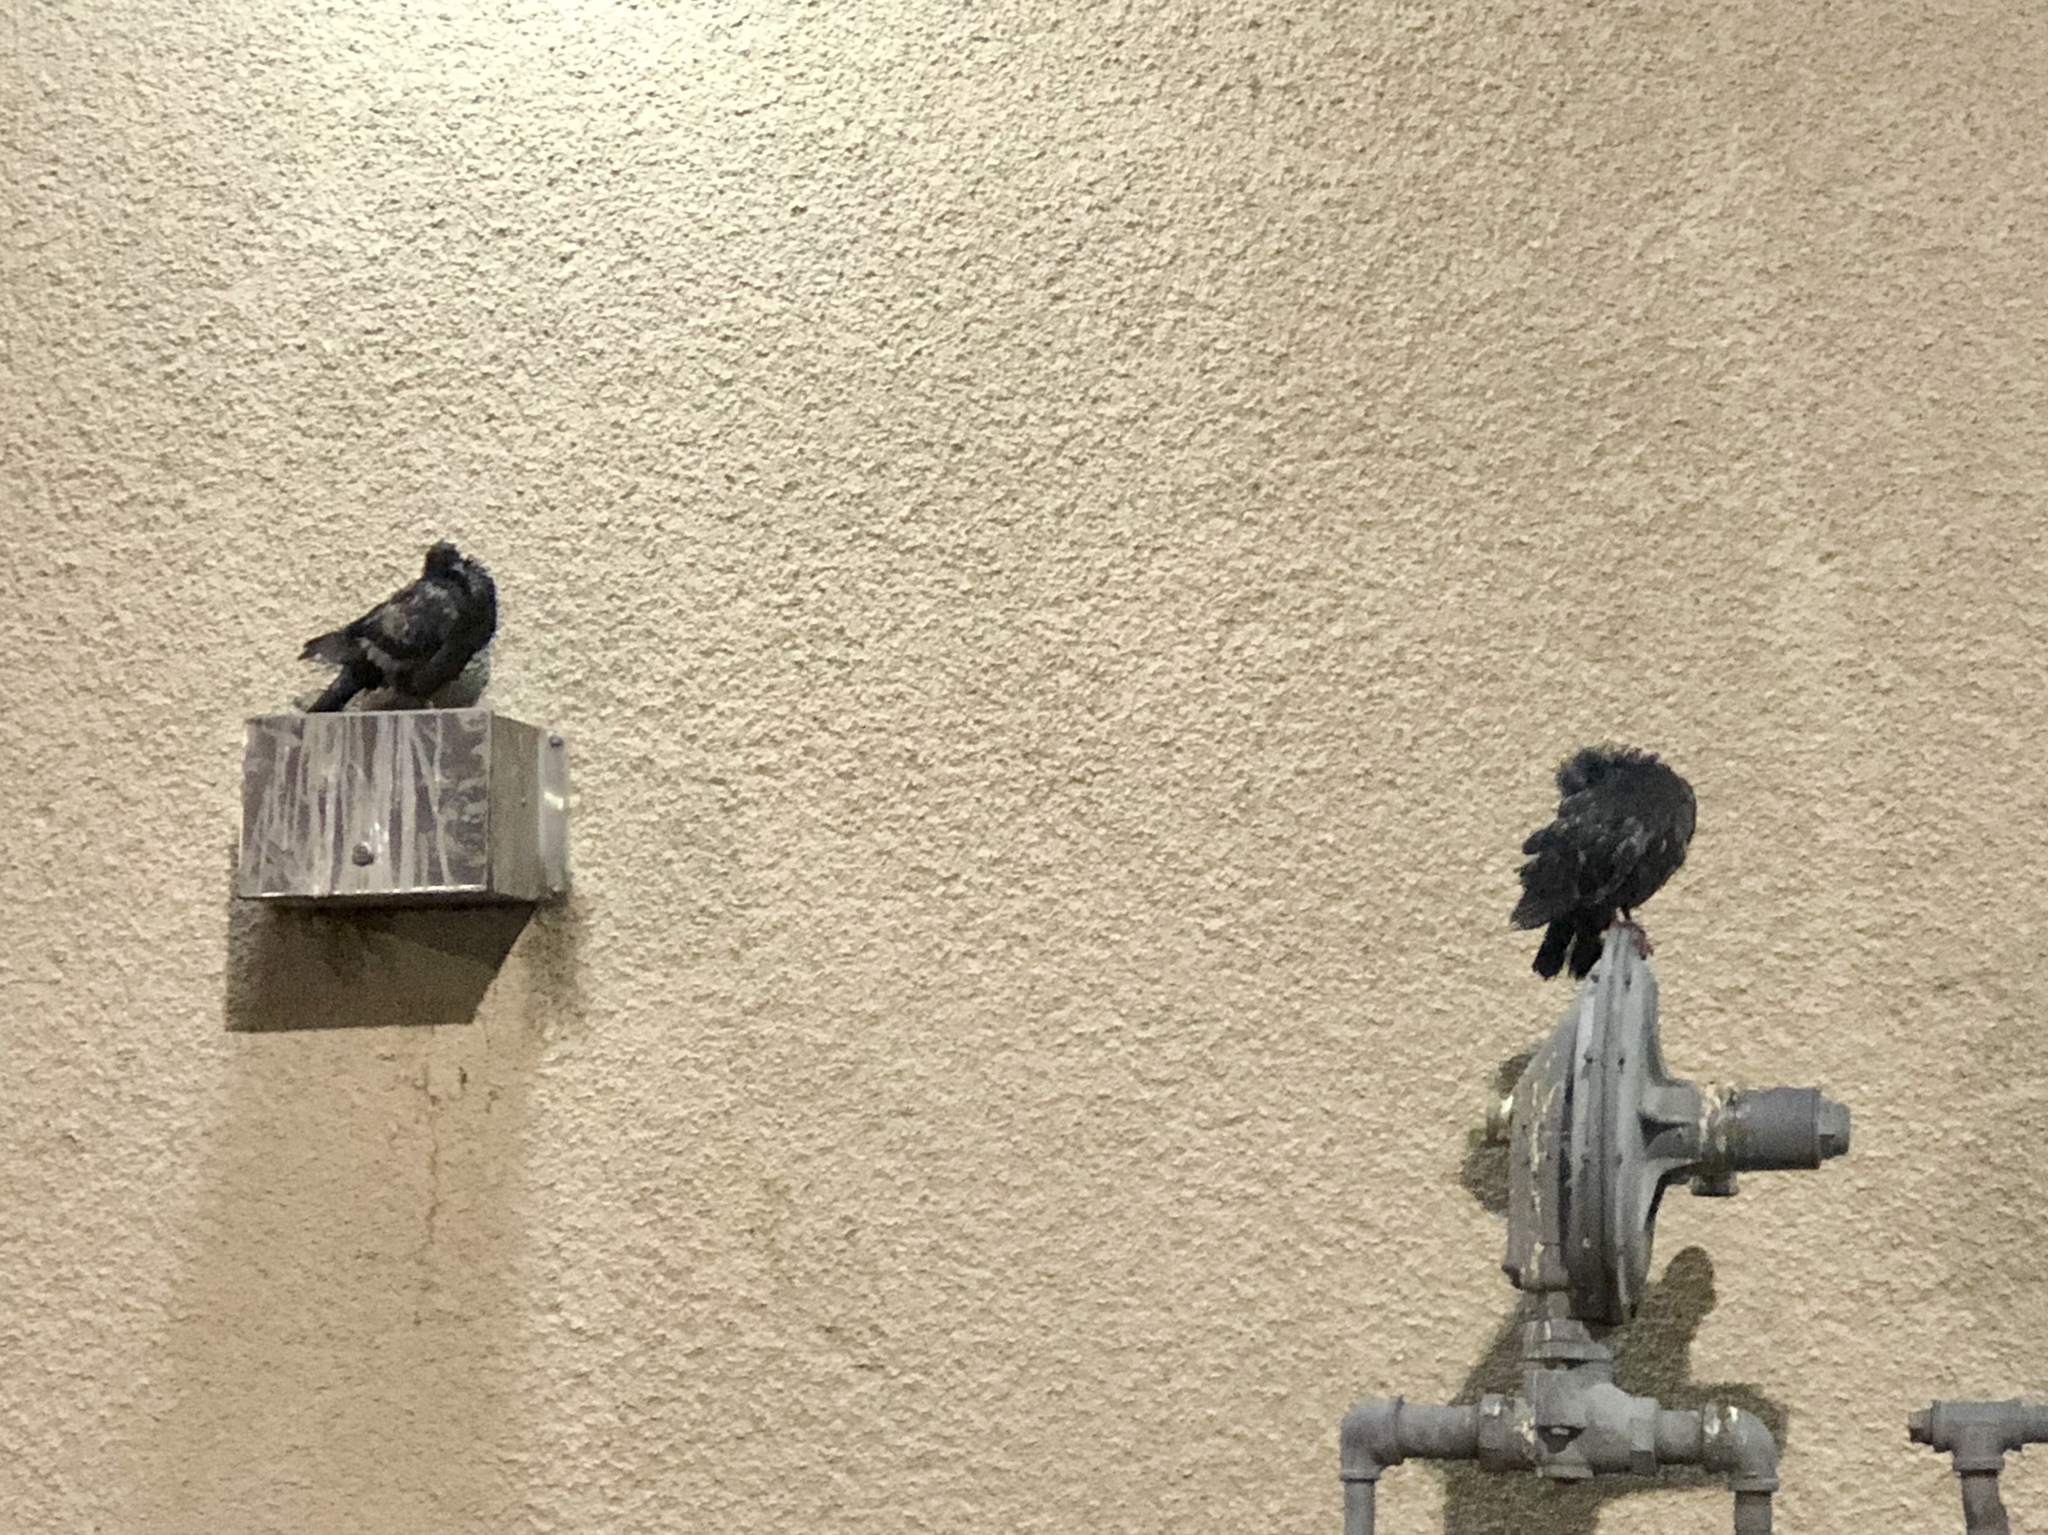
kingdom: Animalia
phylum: Chordata
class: Aves
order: Columbiformes
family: Columbidae
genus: Columba
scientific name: Columba livia
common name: Rock pigeon
